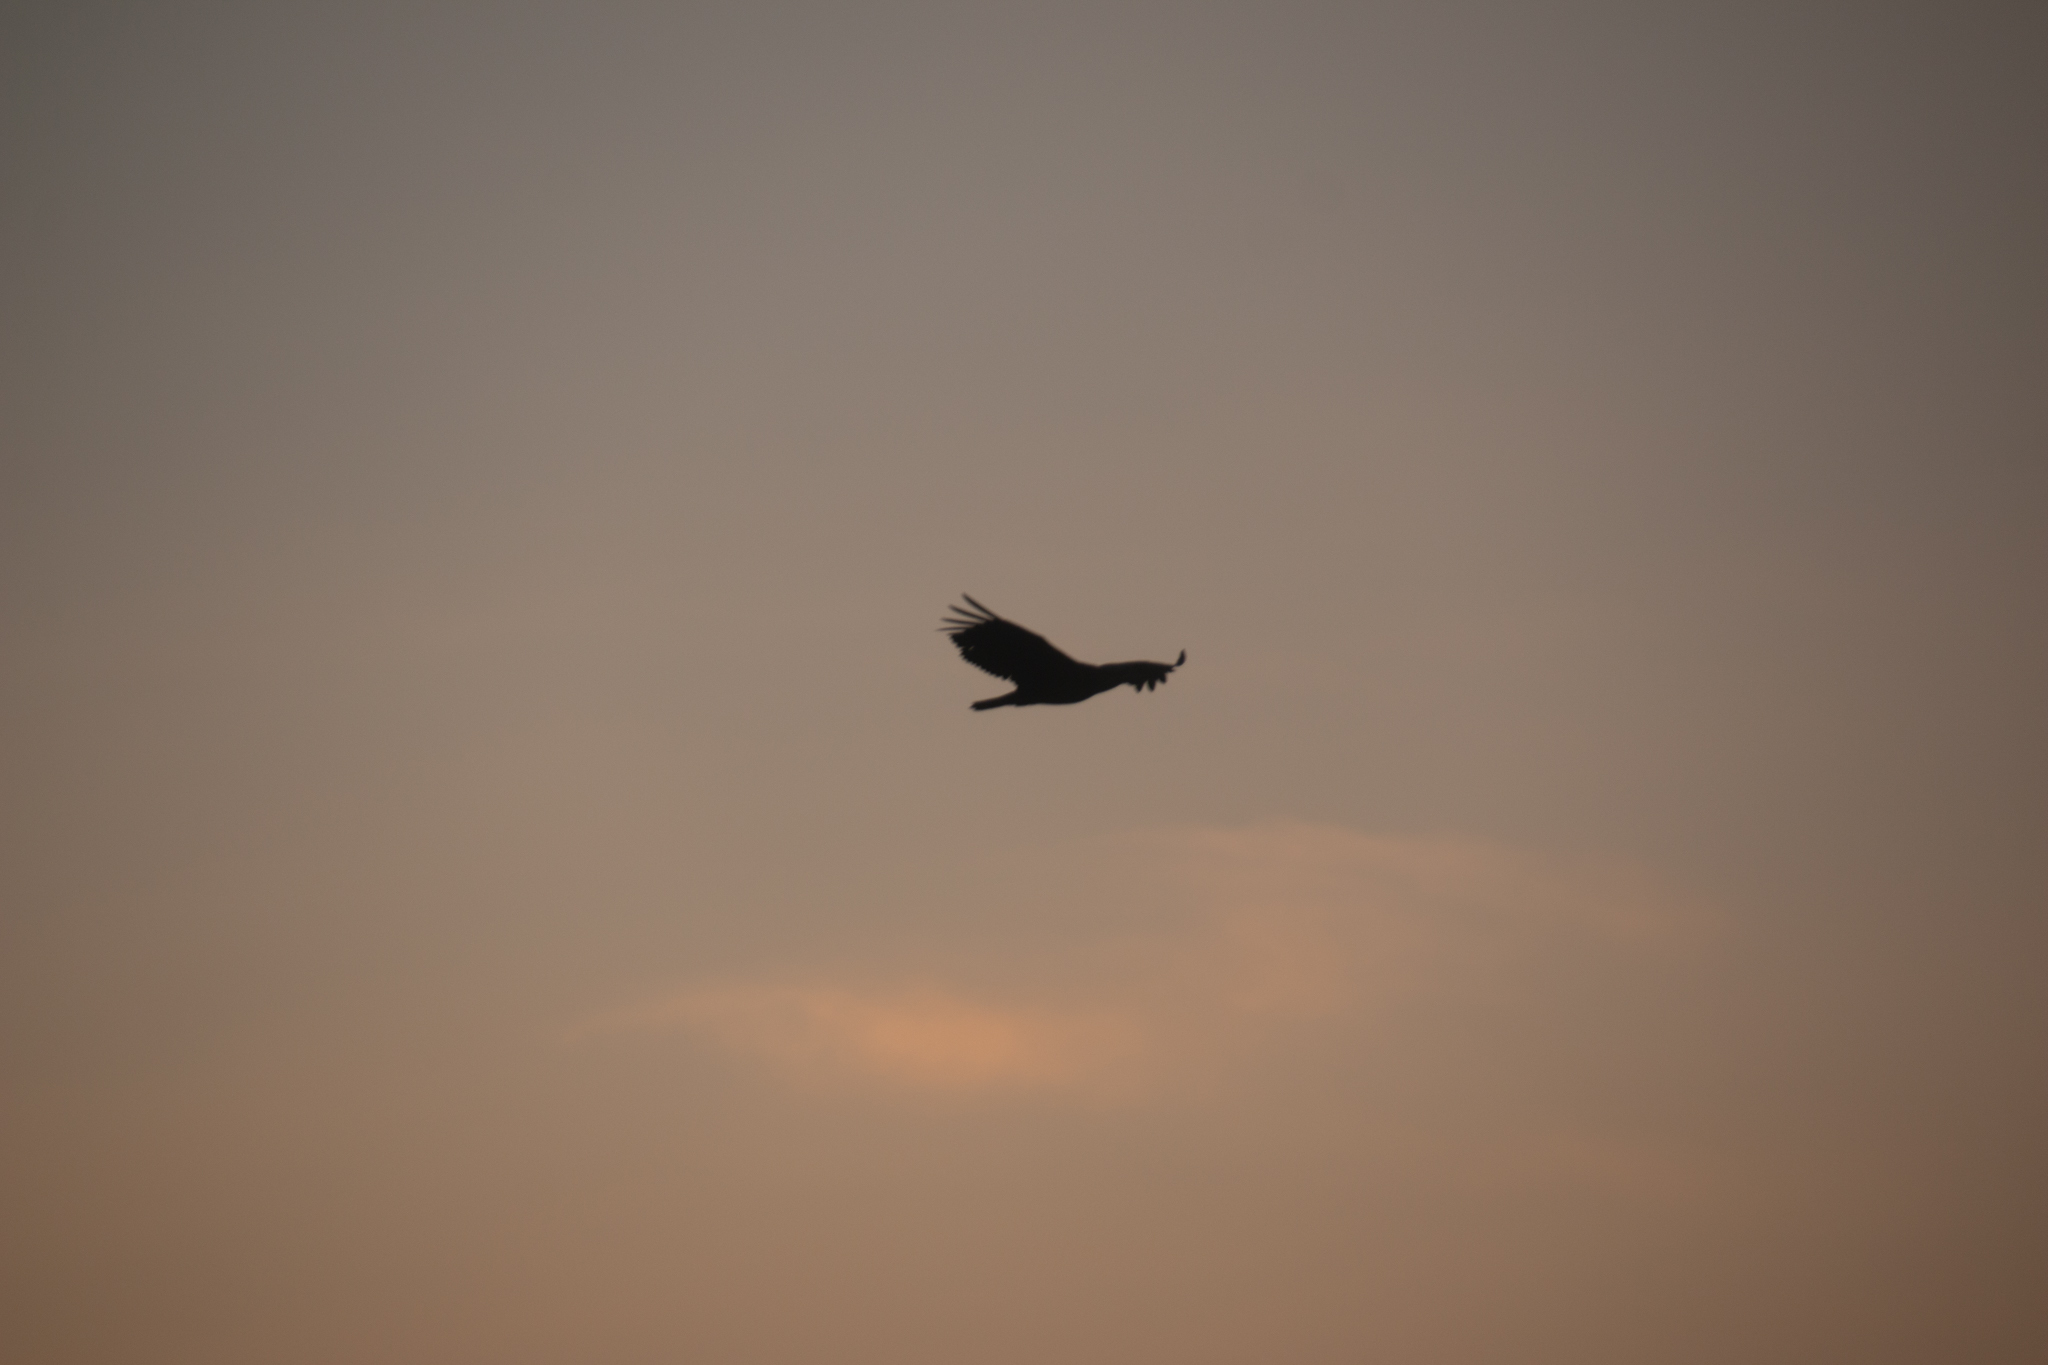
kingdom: Animalia
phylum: Chordata
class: Aves
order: Accipitriformes
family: Accipitridae
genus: Haliaeetus
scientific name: Haliaeetus leucocephalus
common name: Bald eagle
